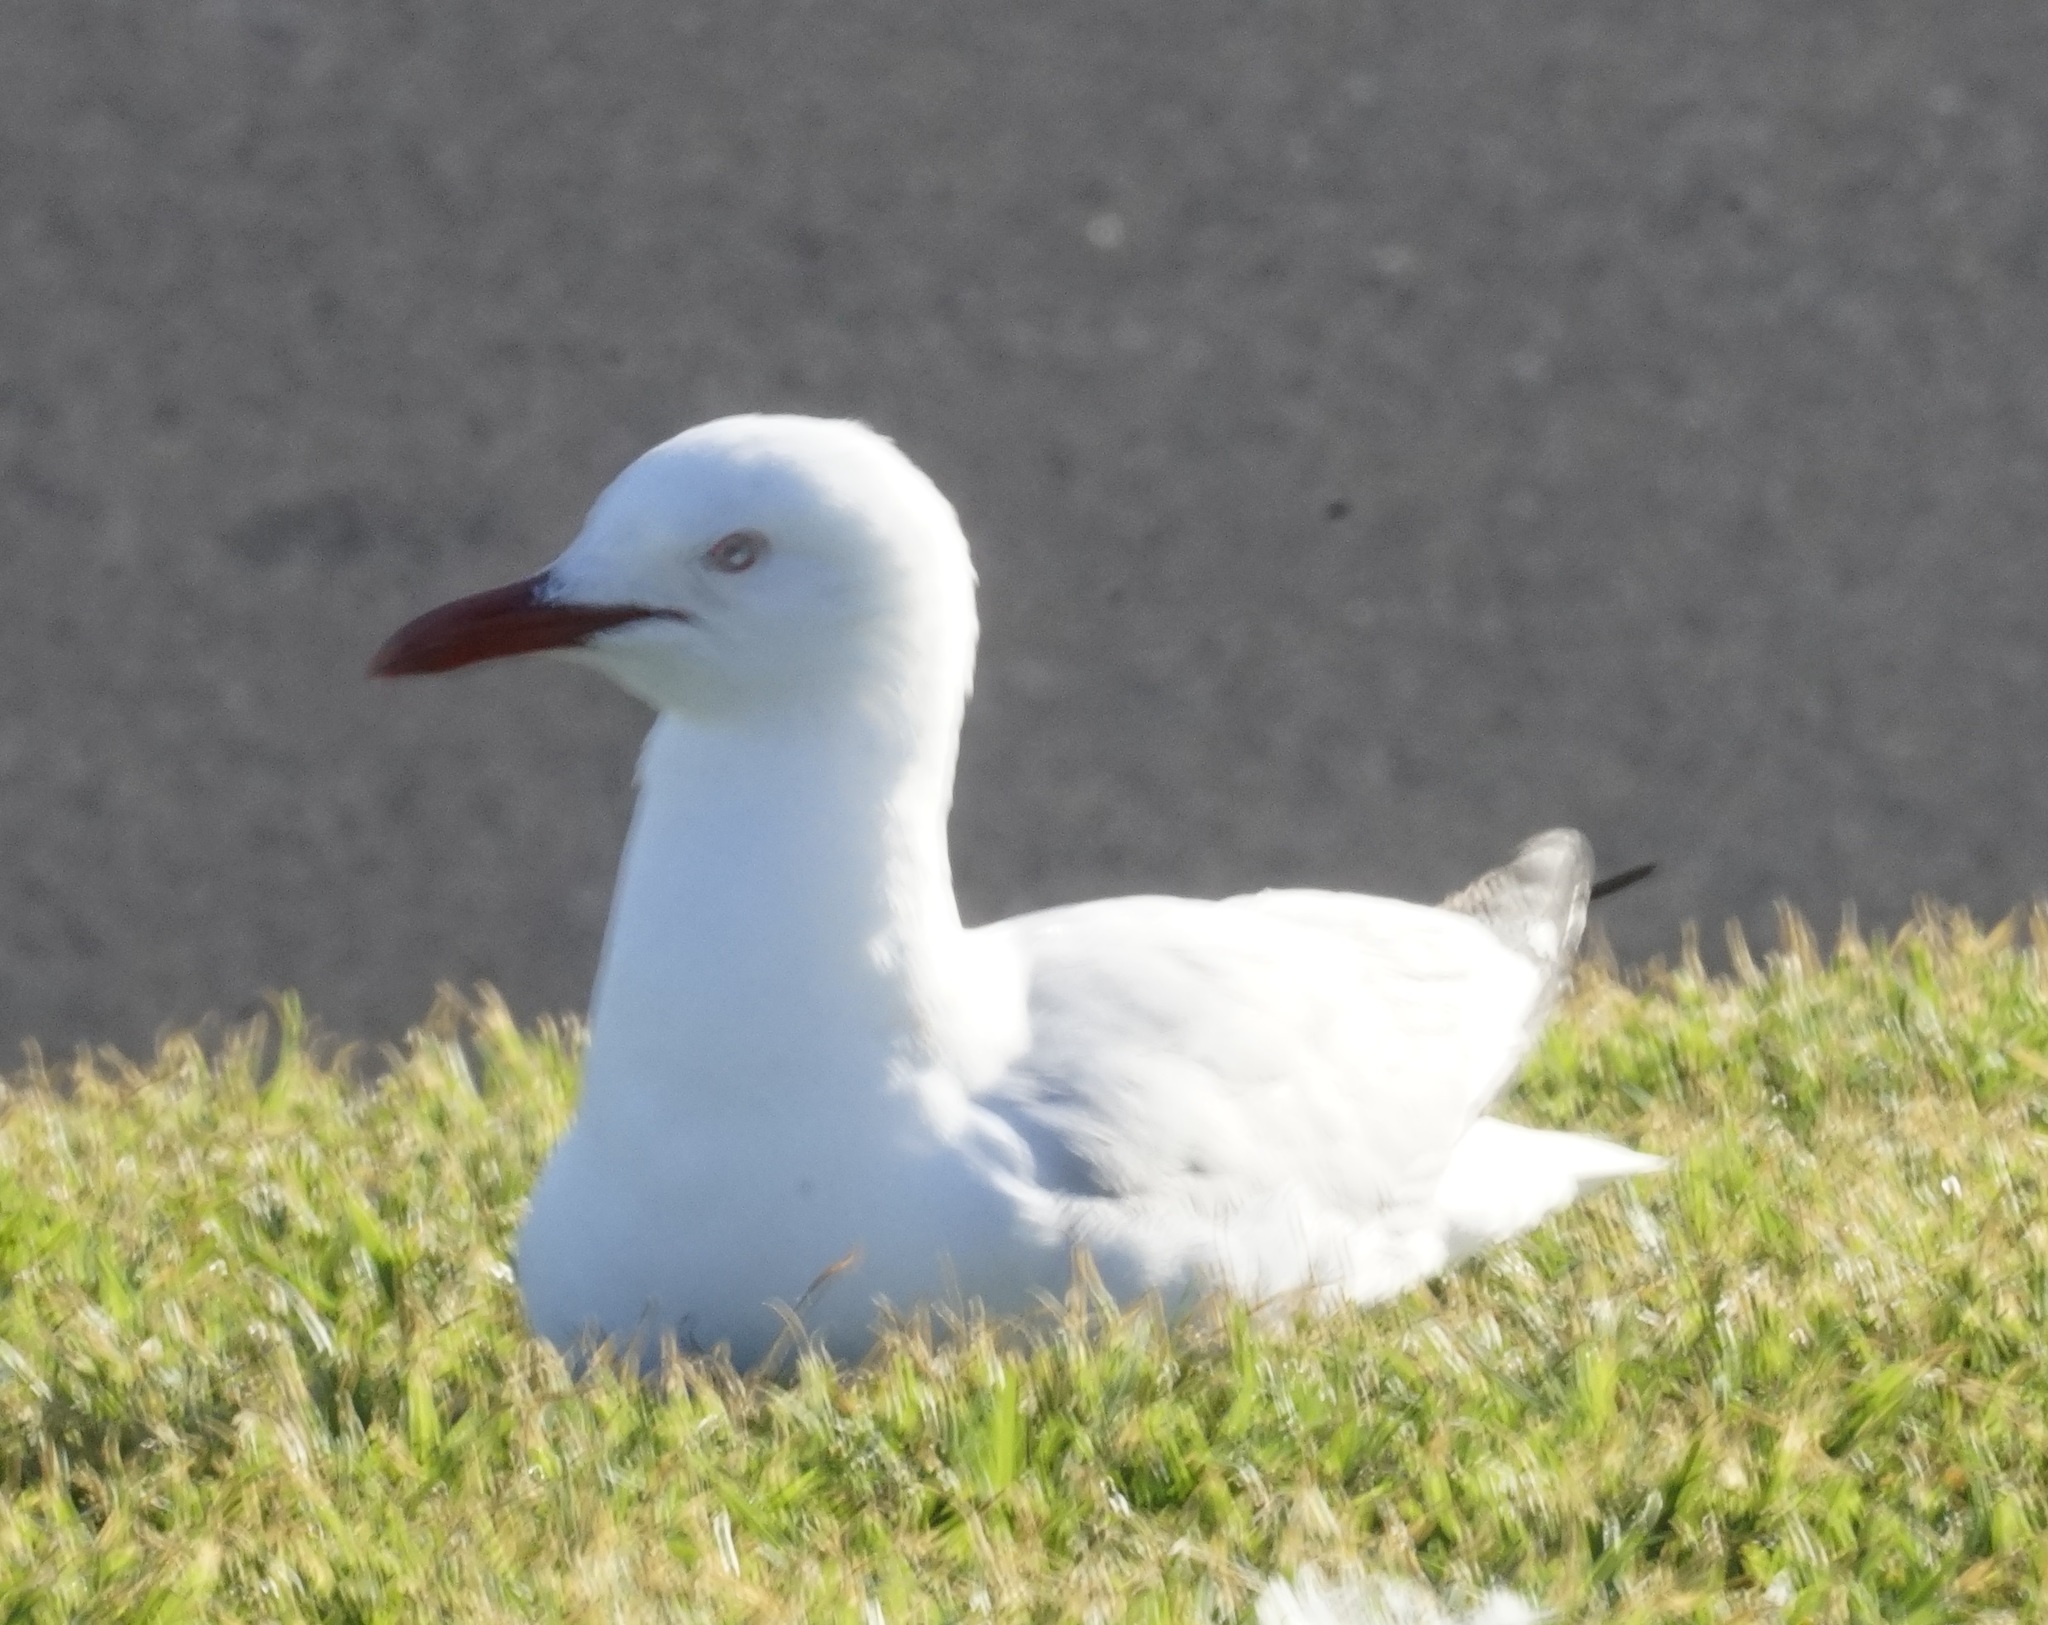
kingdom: Animalia
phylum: Chordata
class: Aves
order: Charadriiformes
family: Laridae
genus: Chroicocephalus
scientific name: Chroicocephalus novaehollandiae
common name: Silver gull
